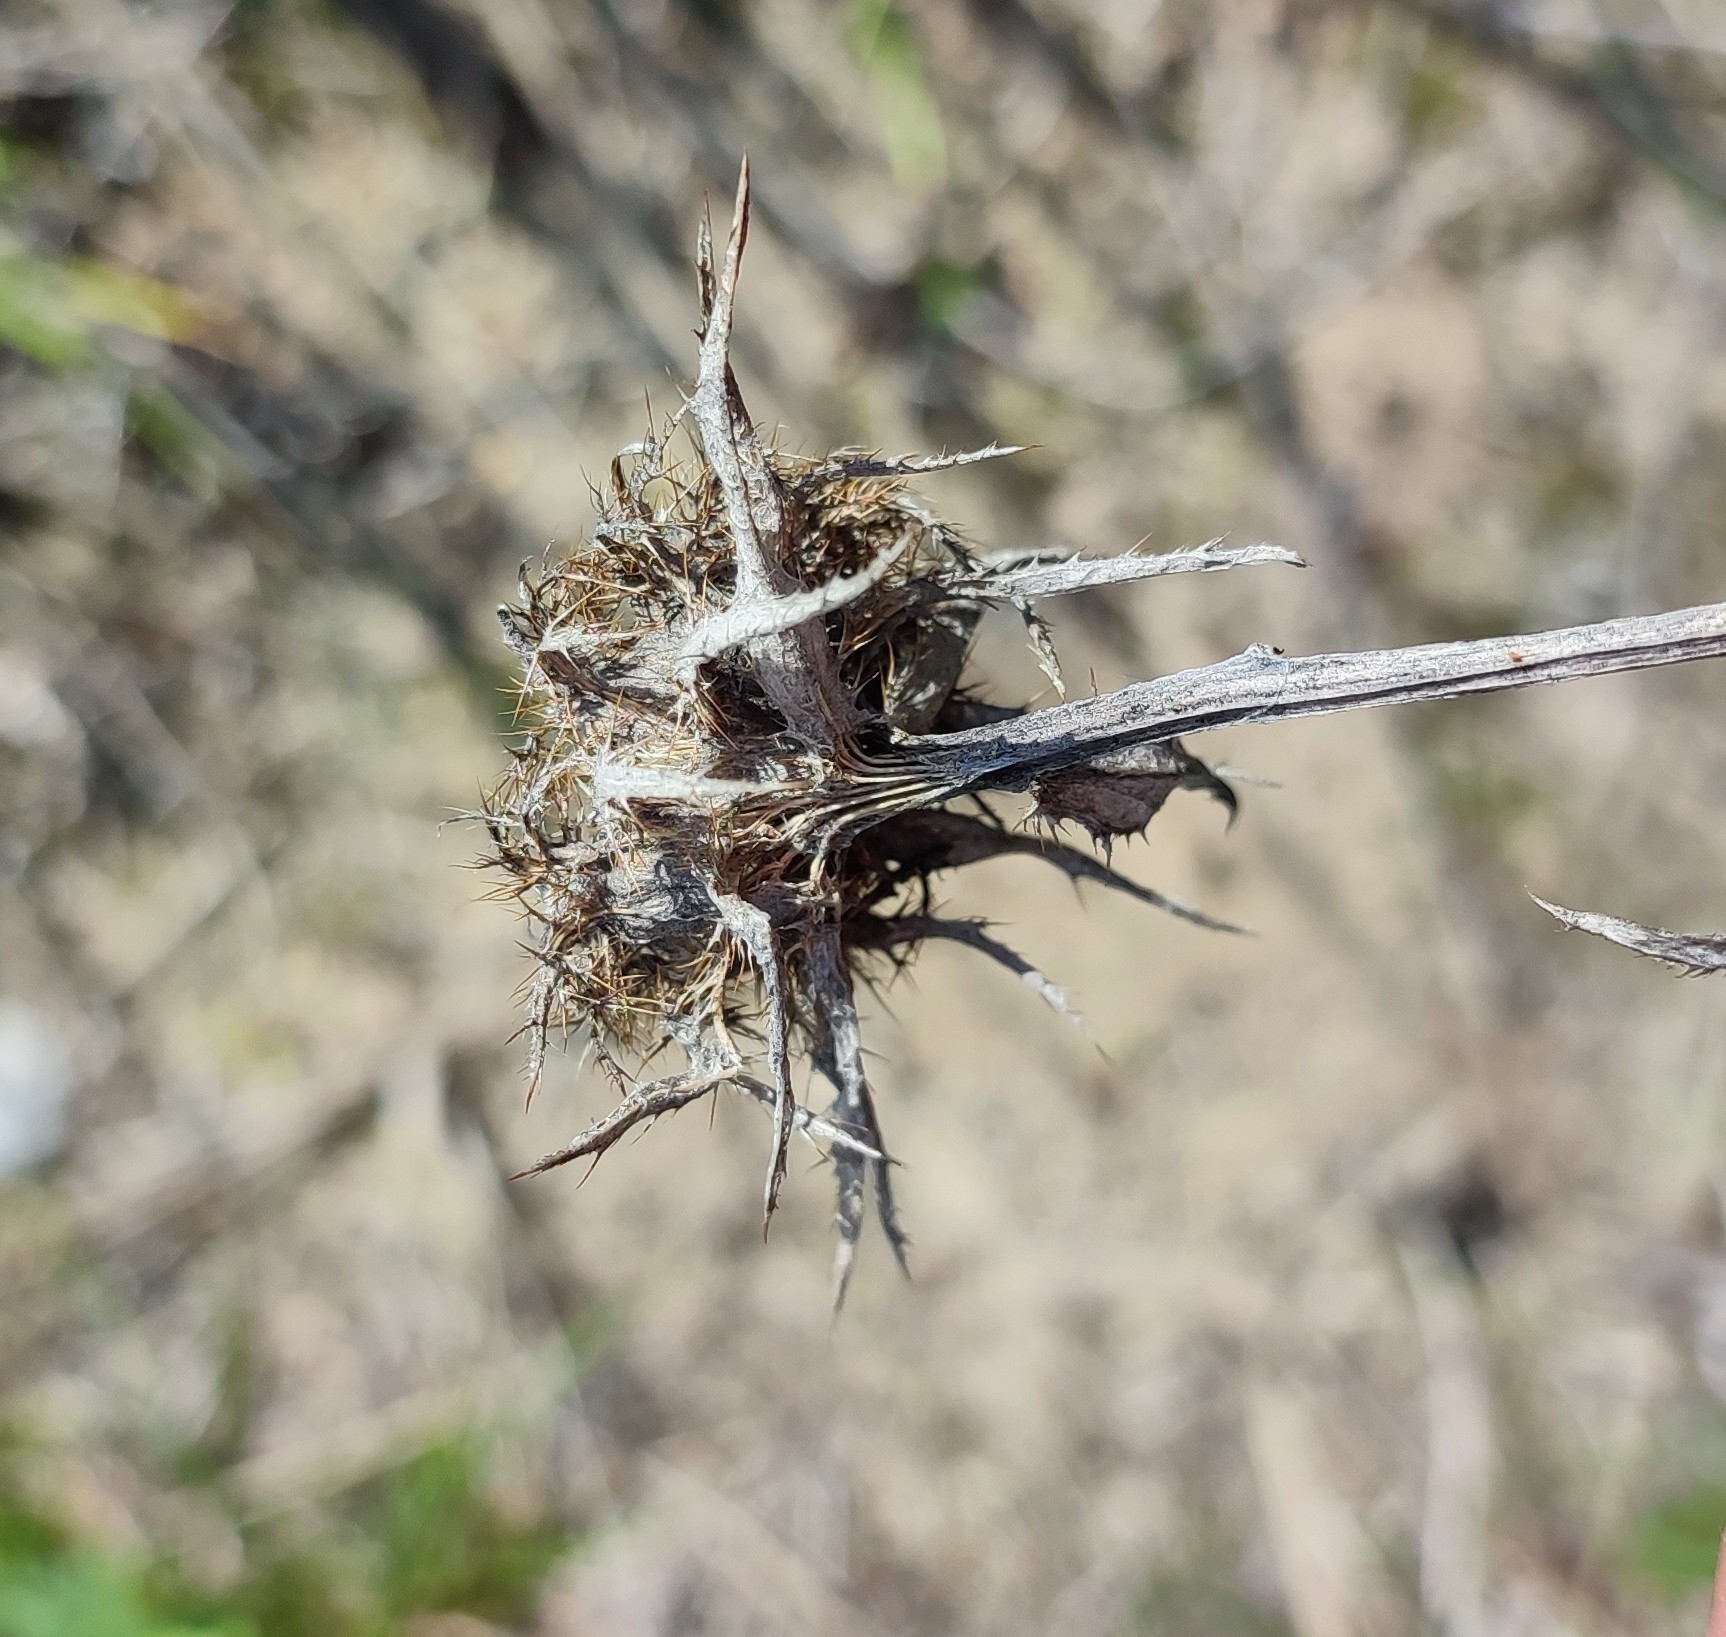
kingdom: Plantae
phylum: Tracheophyta
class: Magnoliopsida
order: Asterales
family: Asteraceae
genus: Carlina
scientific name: Carlina biebersteinii
